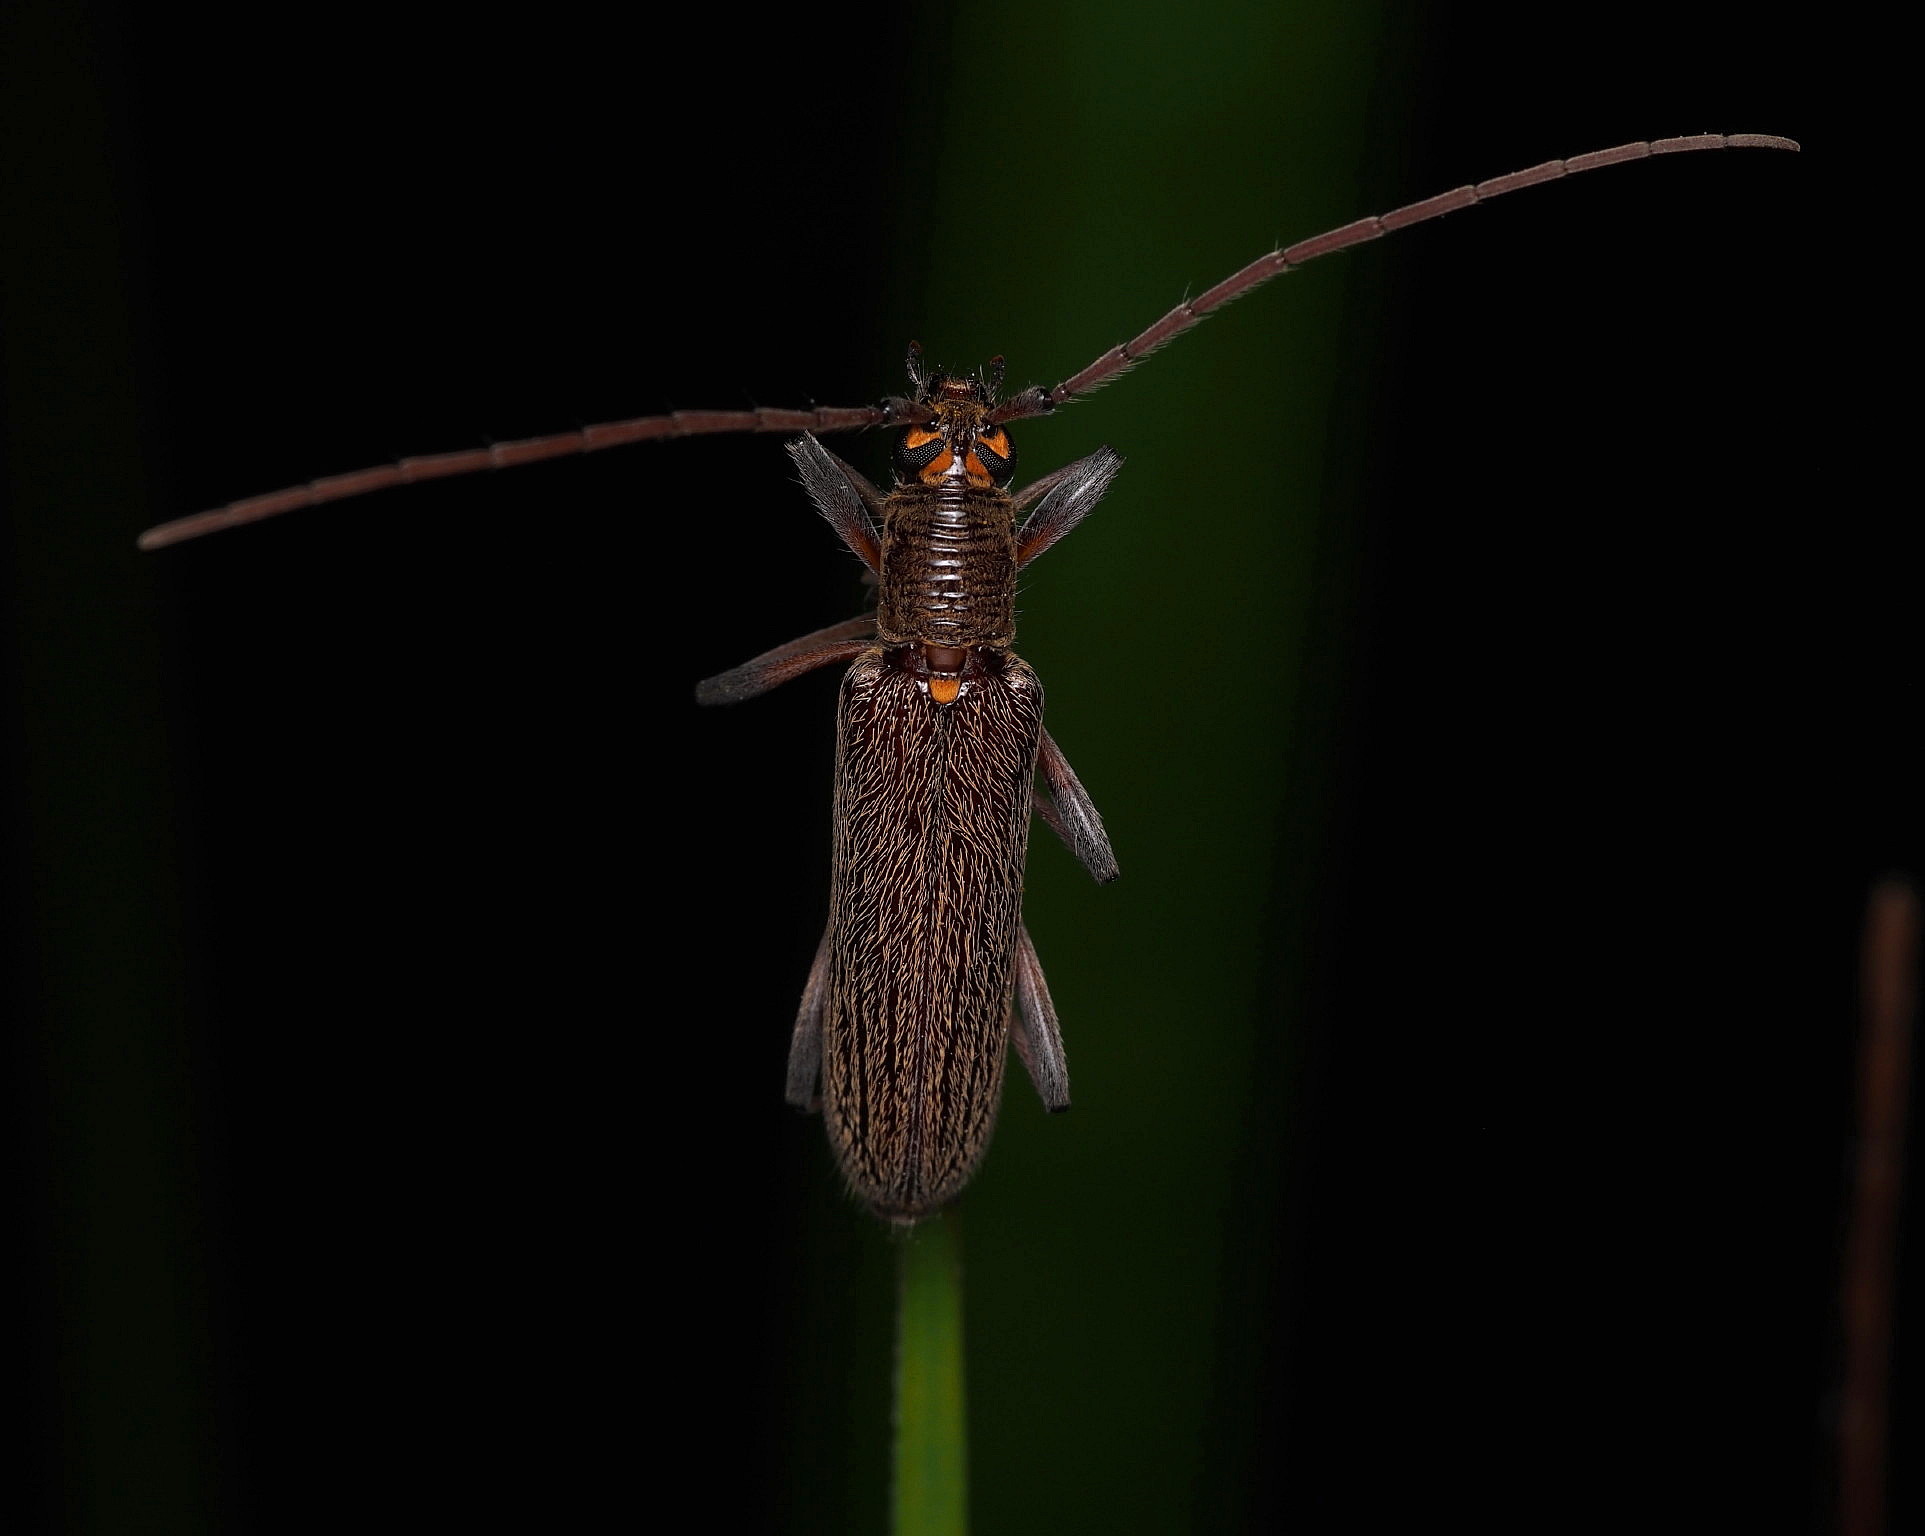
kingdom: Animalia
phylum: Arthropoda
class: Insecta
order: Coleoptera
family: Cerambycidae
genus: Oemona
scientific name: Oemona hirta
